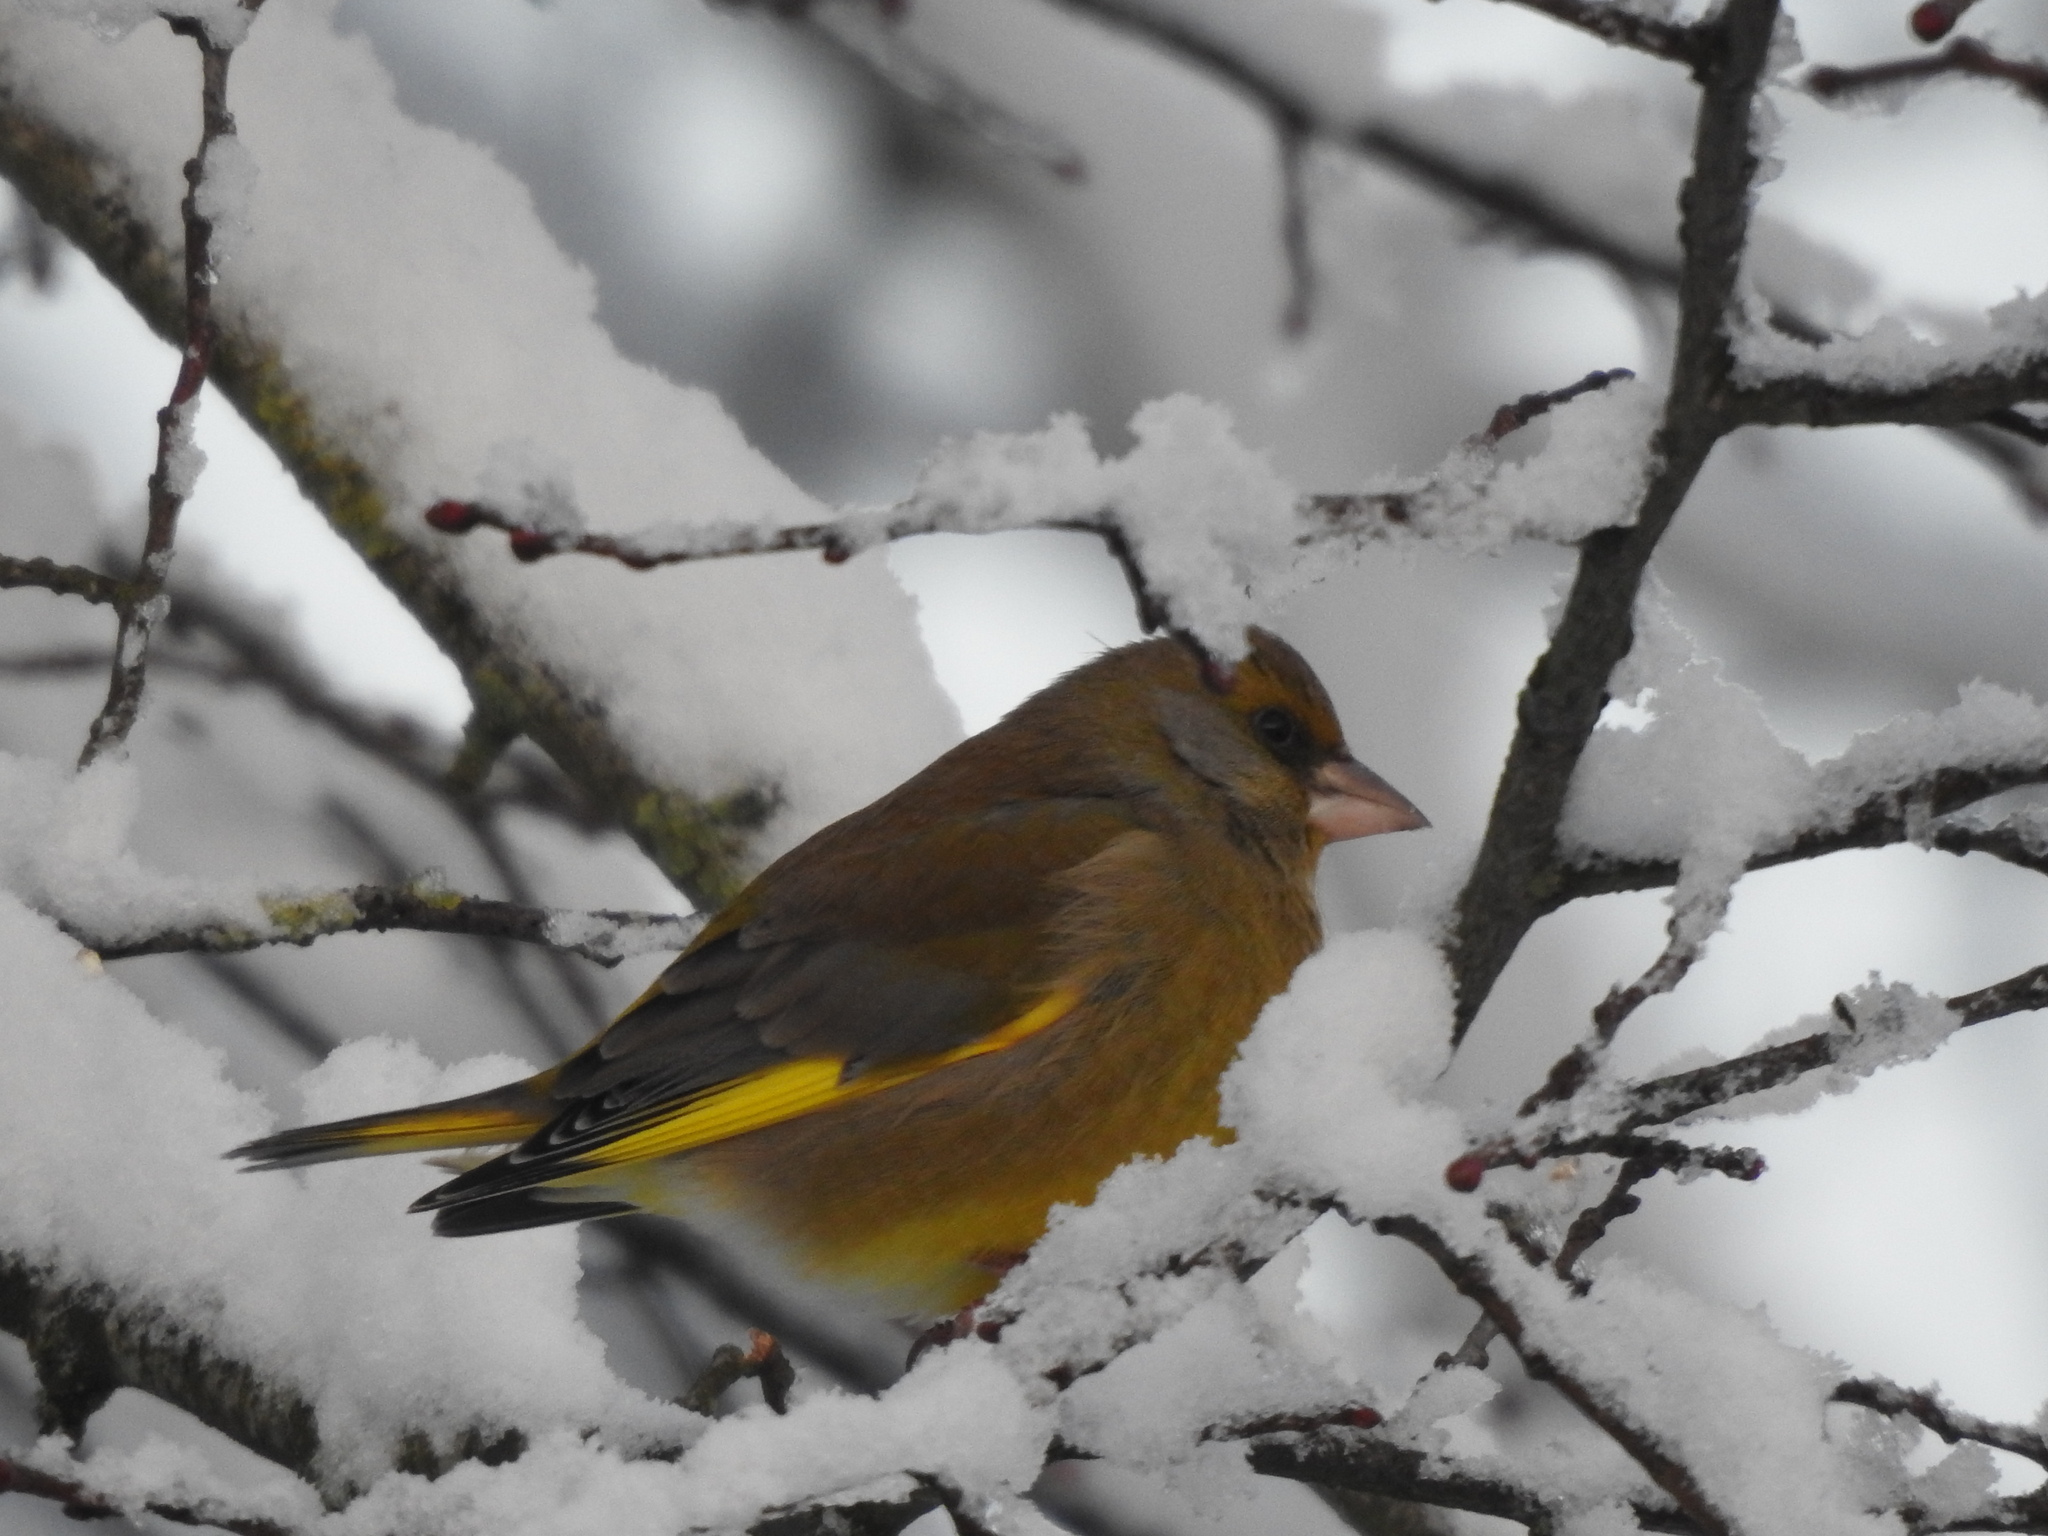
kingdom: Plantae
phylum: Tracheophyta
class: Liliopsida
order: Poales
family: Poaceae
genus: Chloris
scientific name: Chloris chloris
